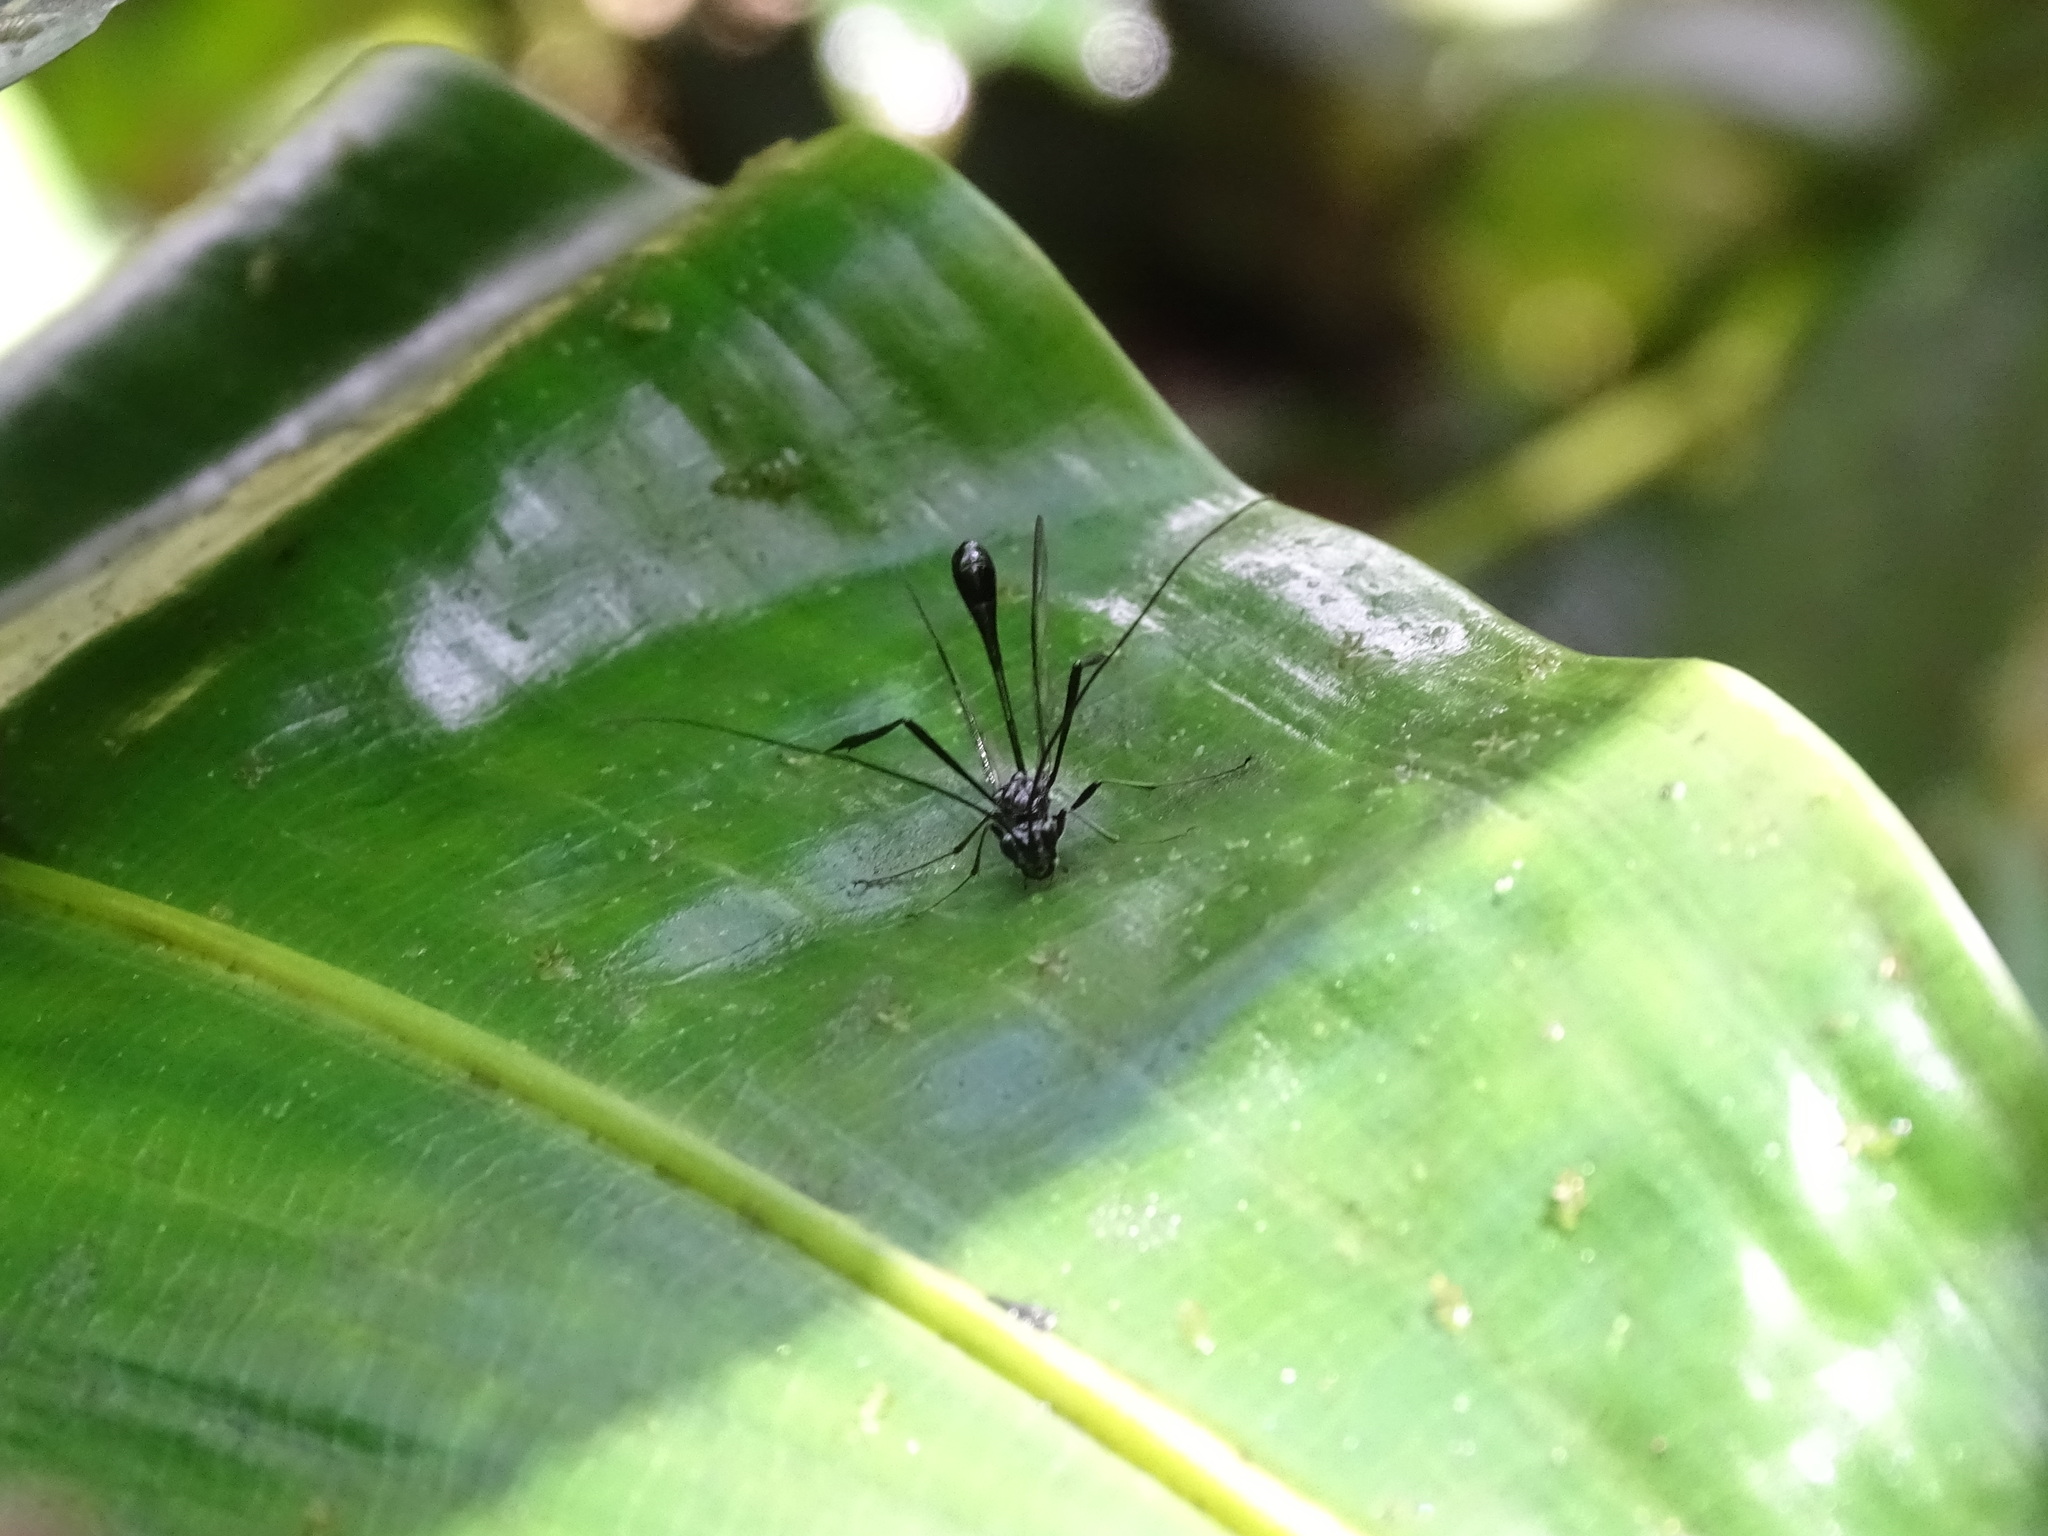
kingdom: Animalia
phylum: Arthropoda
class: Insecta
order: Hymenoptera
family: Pelecinidae
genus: Pelecinus
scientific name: Pelecinus polyturator
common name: American pelecinid wasp
